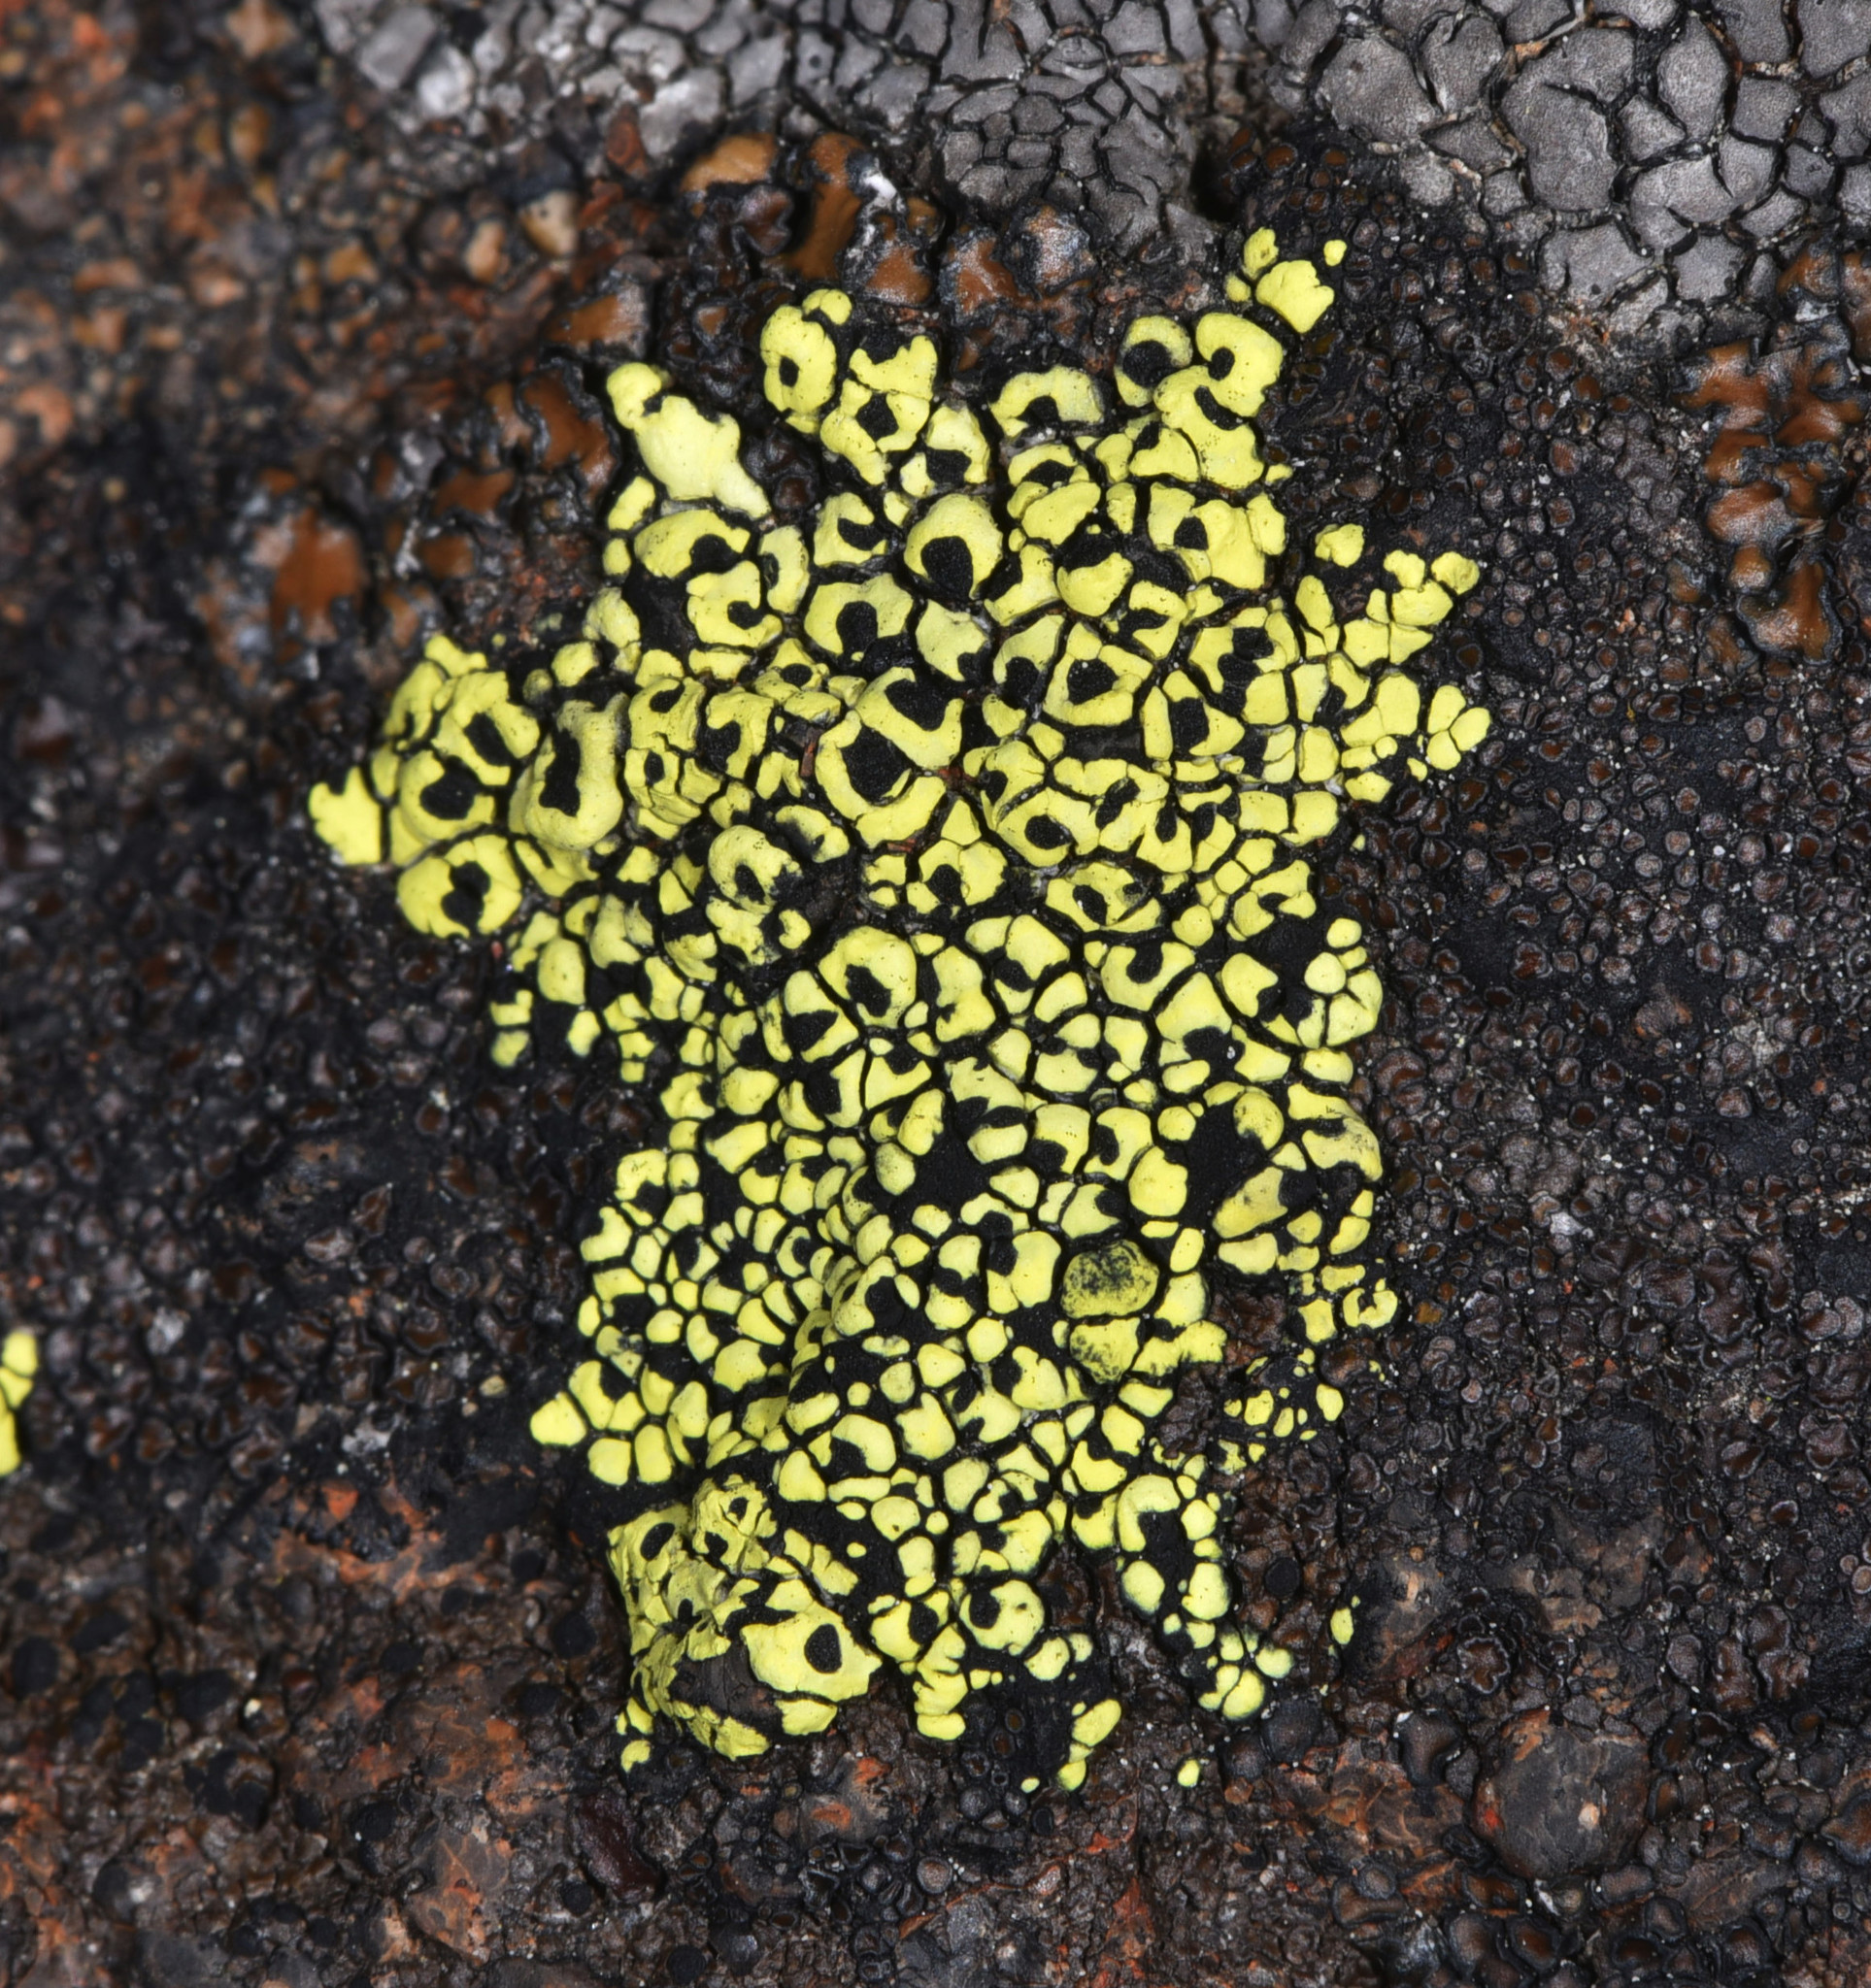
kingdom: Fungi
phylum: Ascomycota
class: Lecanoromycetes
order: Rhizocarpales
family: Rhizocarpaceae
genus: Rhizocarpon
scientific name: Rhizocarpon geographicum
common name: Yellow map lichen
